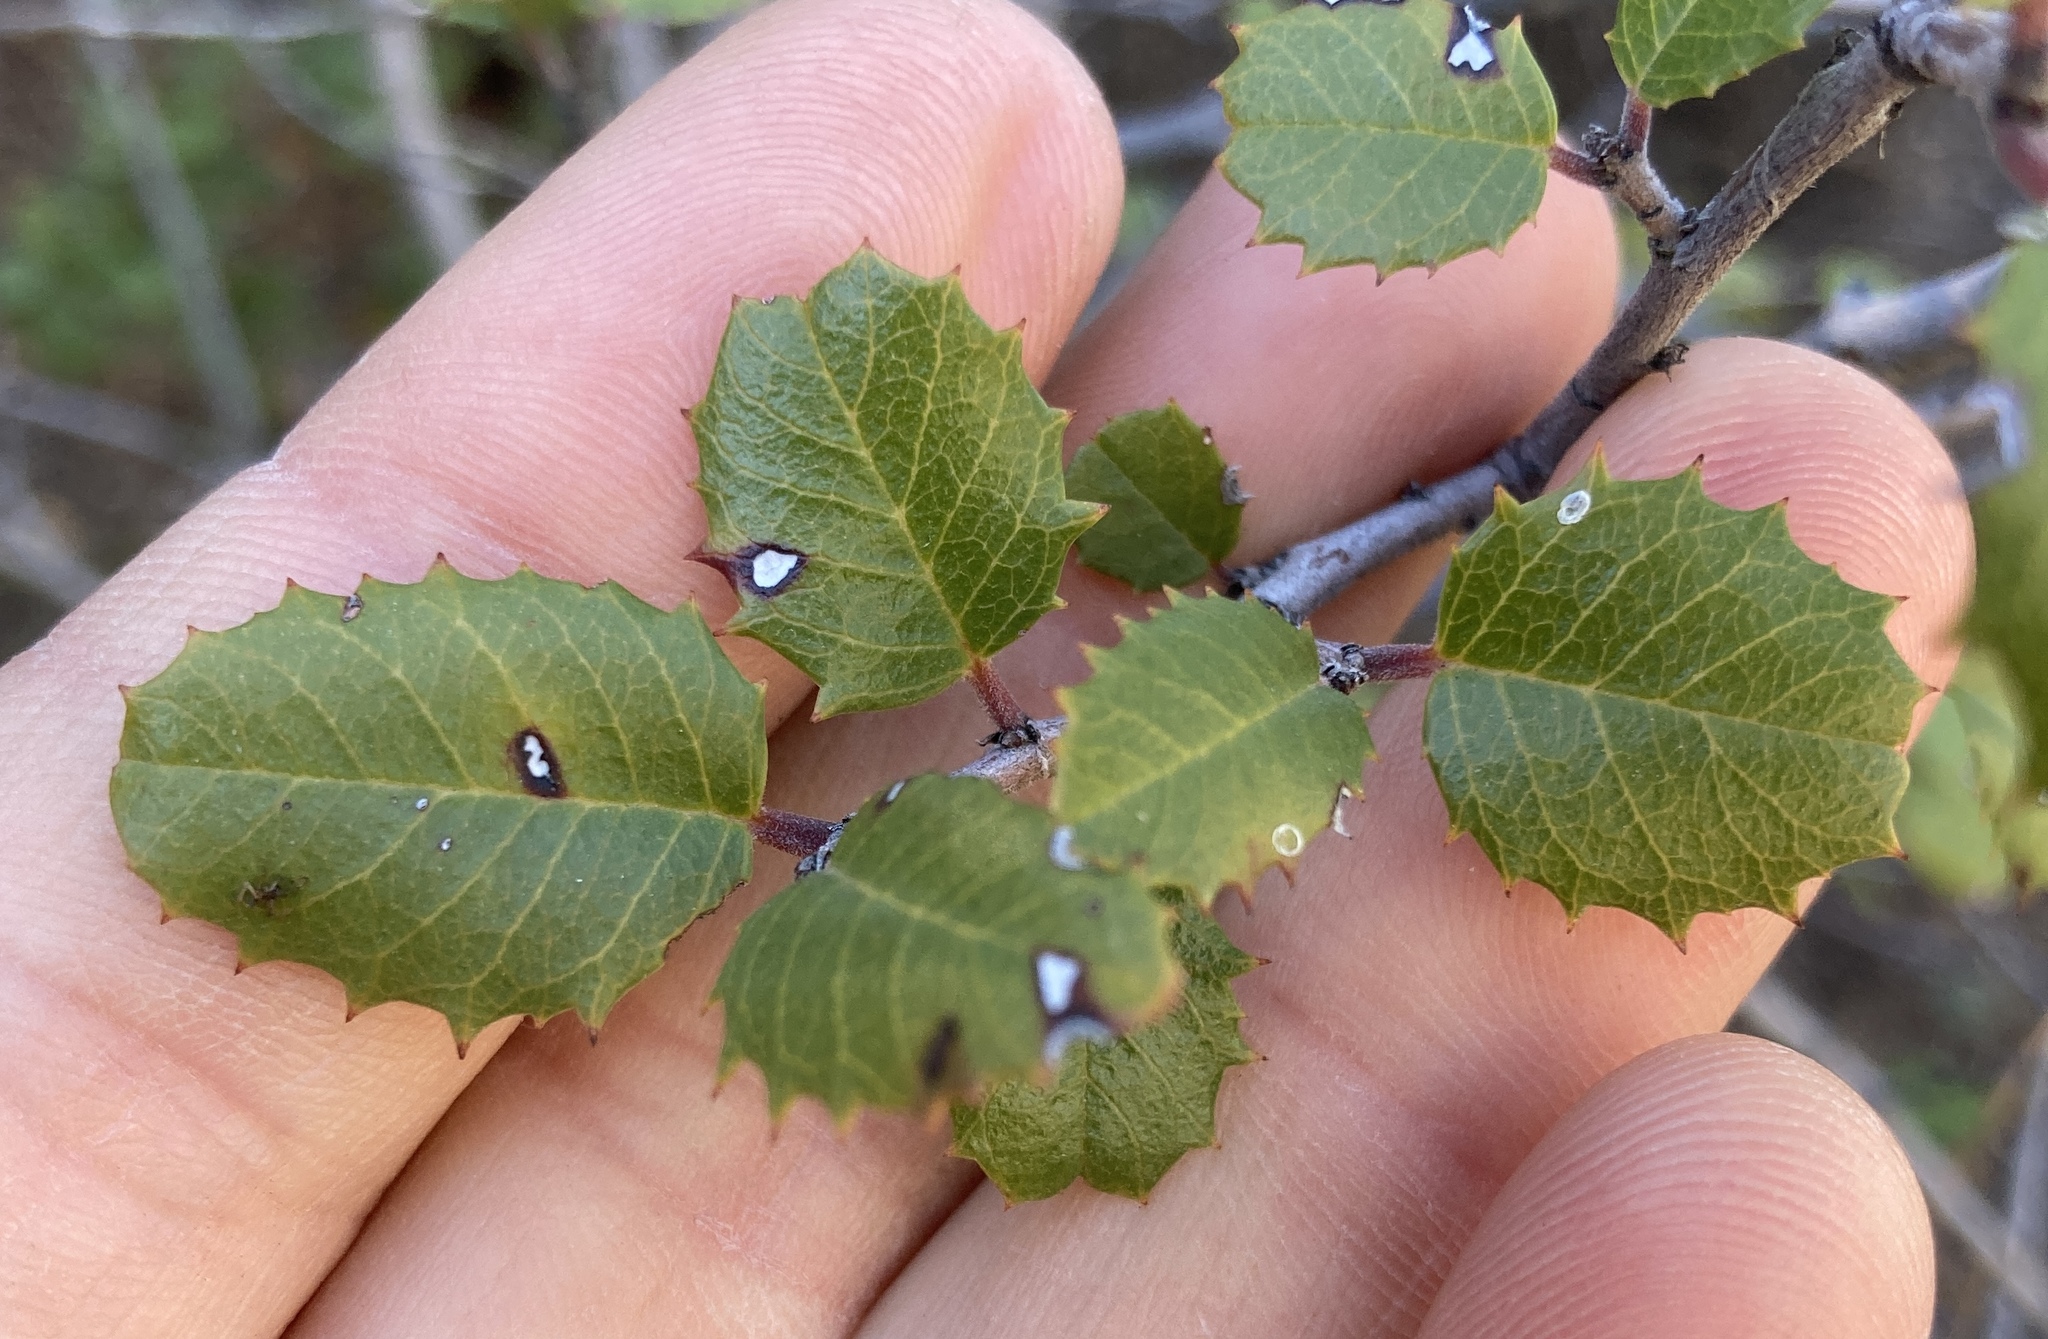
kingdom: Plantae
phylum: Tracheophyta
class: Magnoliopsida
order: Rosales
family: Rhamnaceae
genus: Endotropis
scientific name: Endotropis crocea
